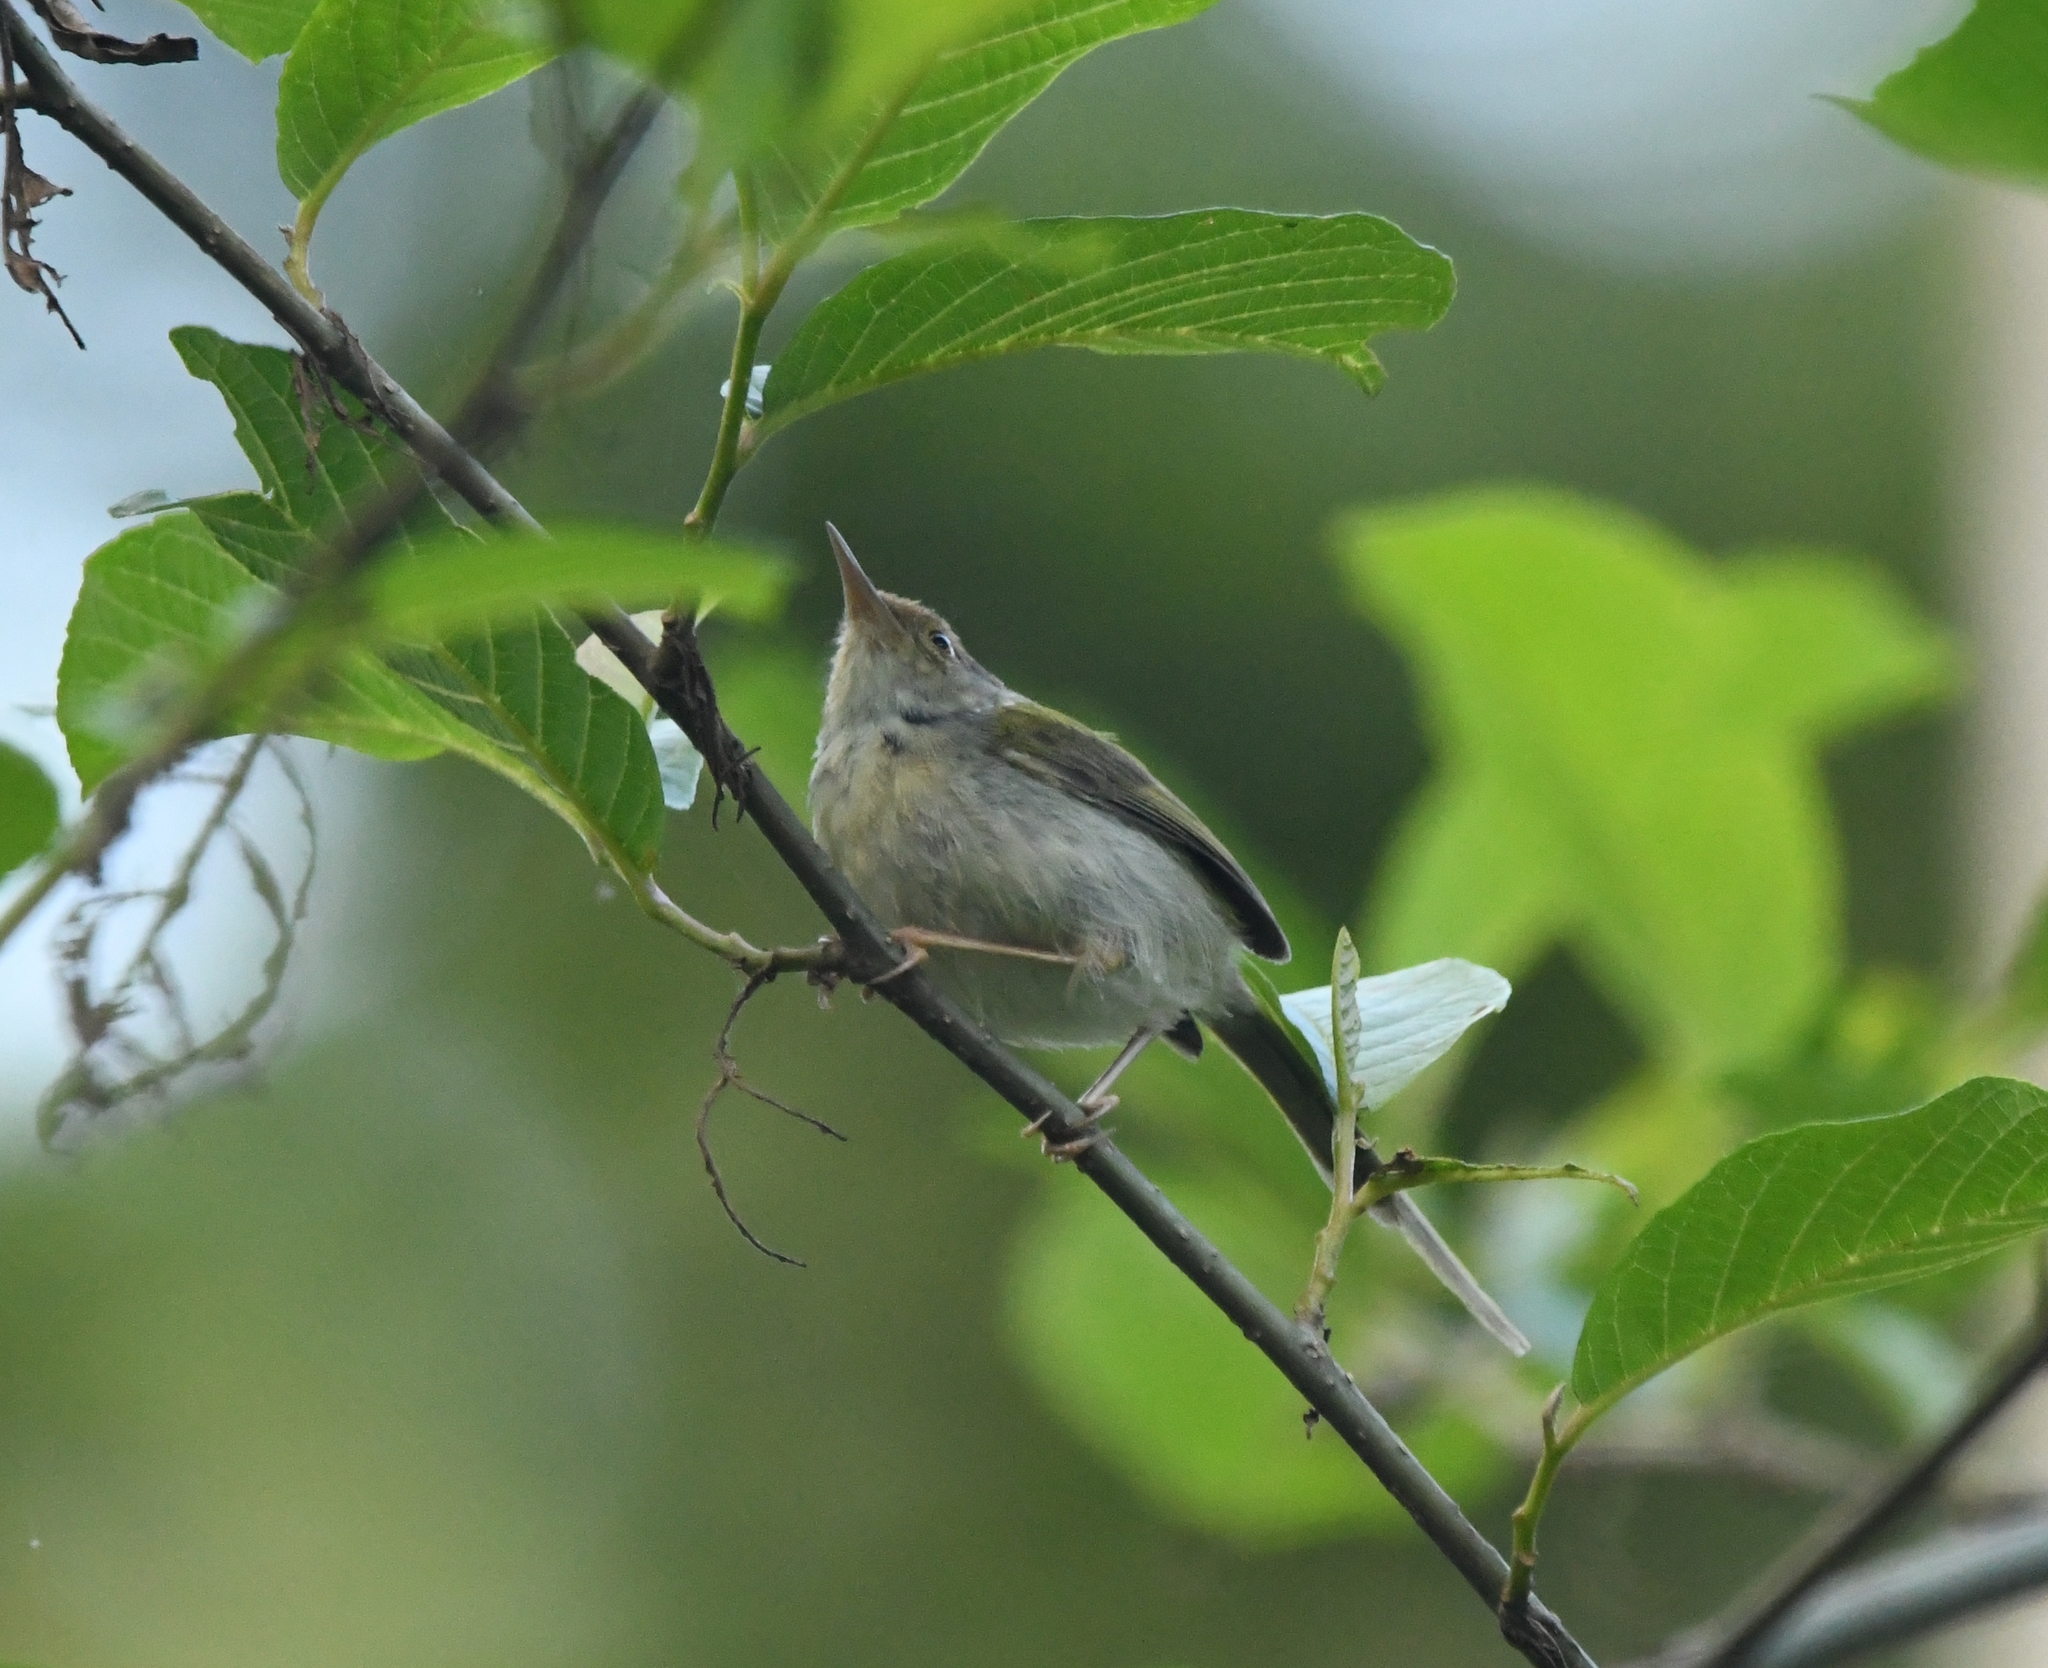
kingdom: Animalia
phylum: Chordata
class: Aves
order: Passeriformes
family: Cisticolidae
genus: Orthotomus
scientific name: Orthotomus sutorius
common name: Common tailorbird
